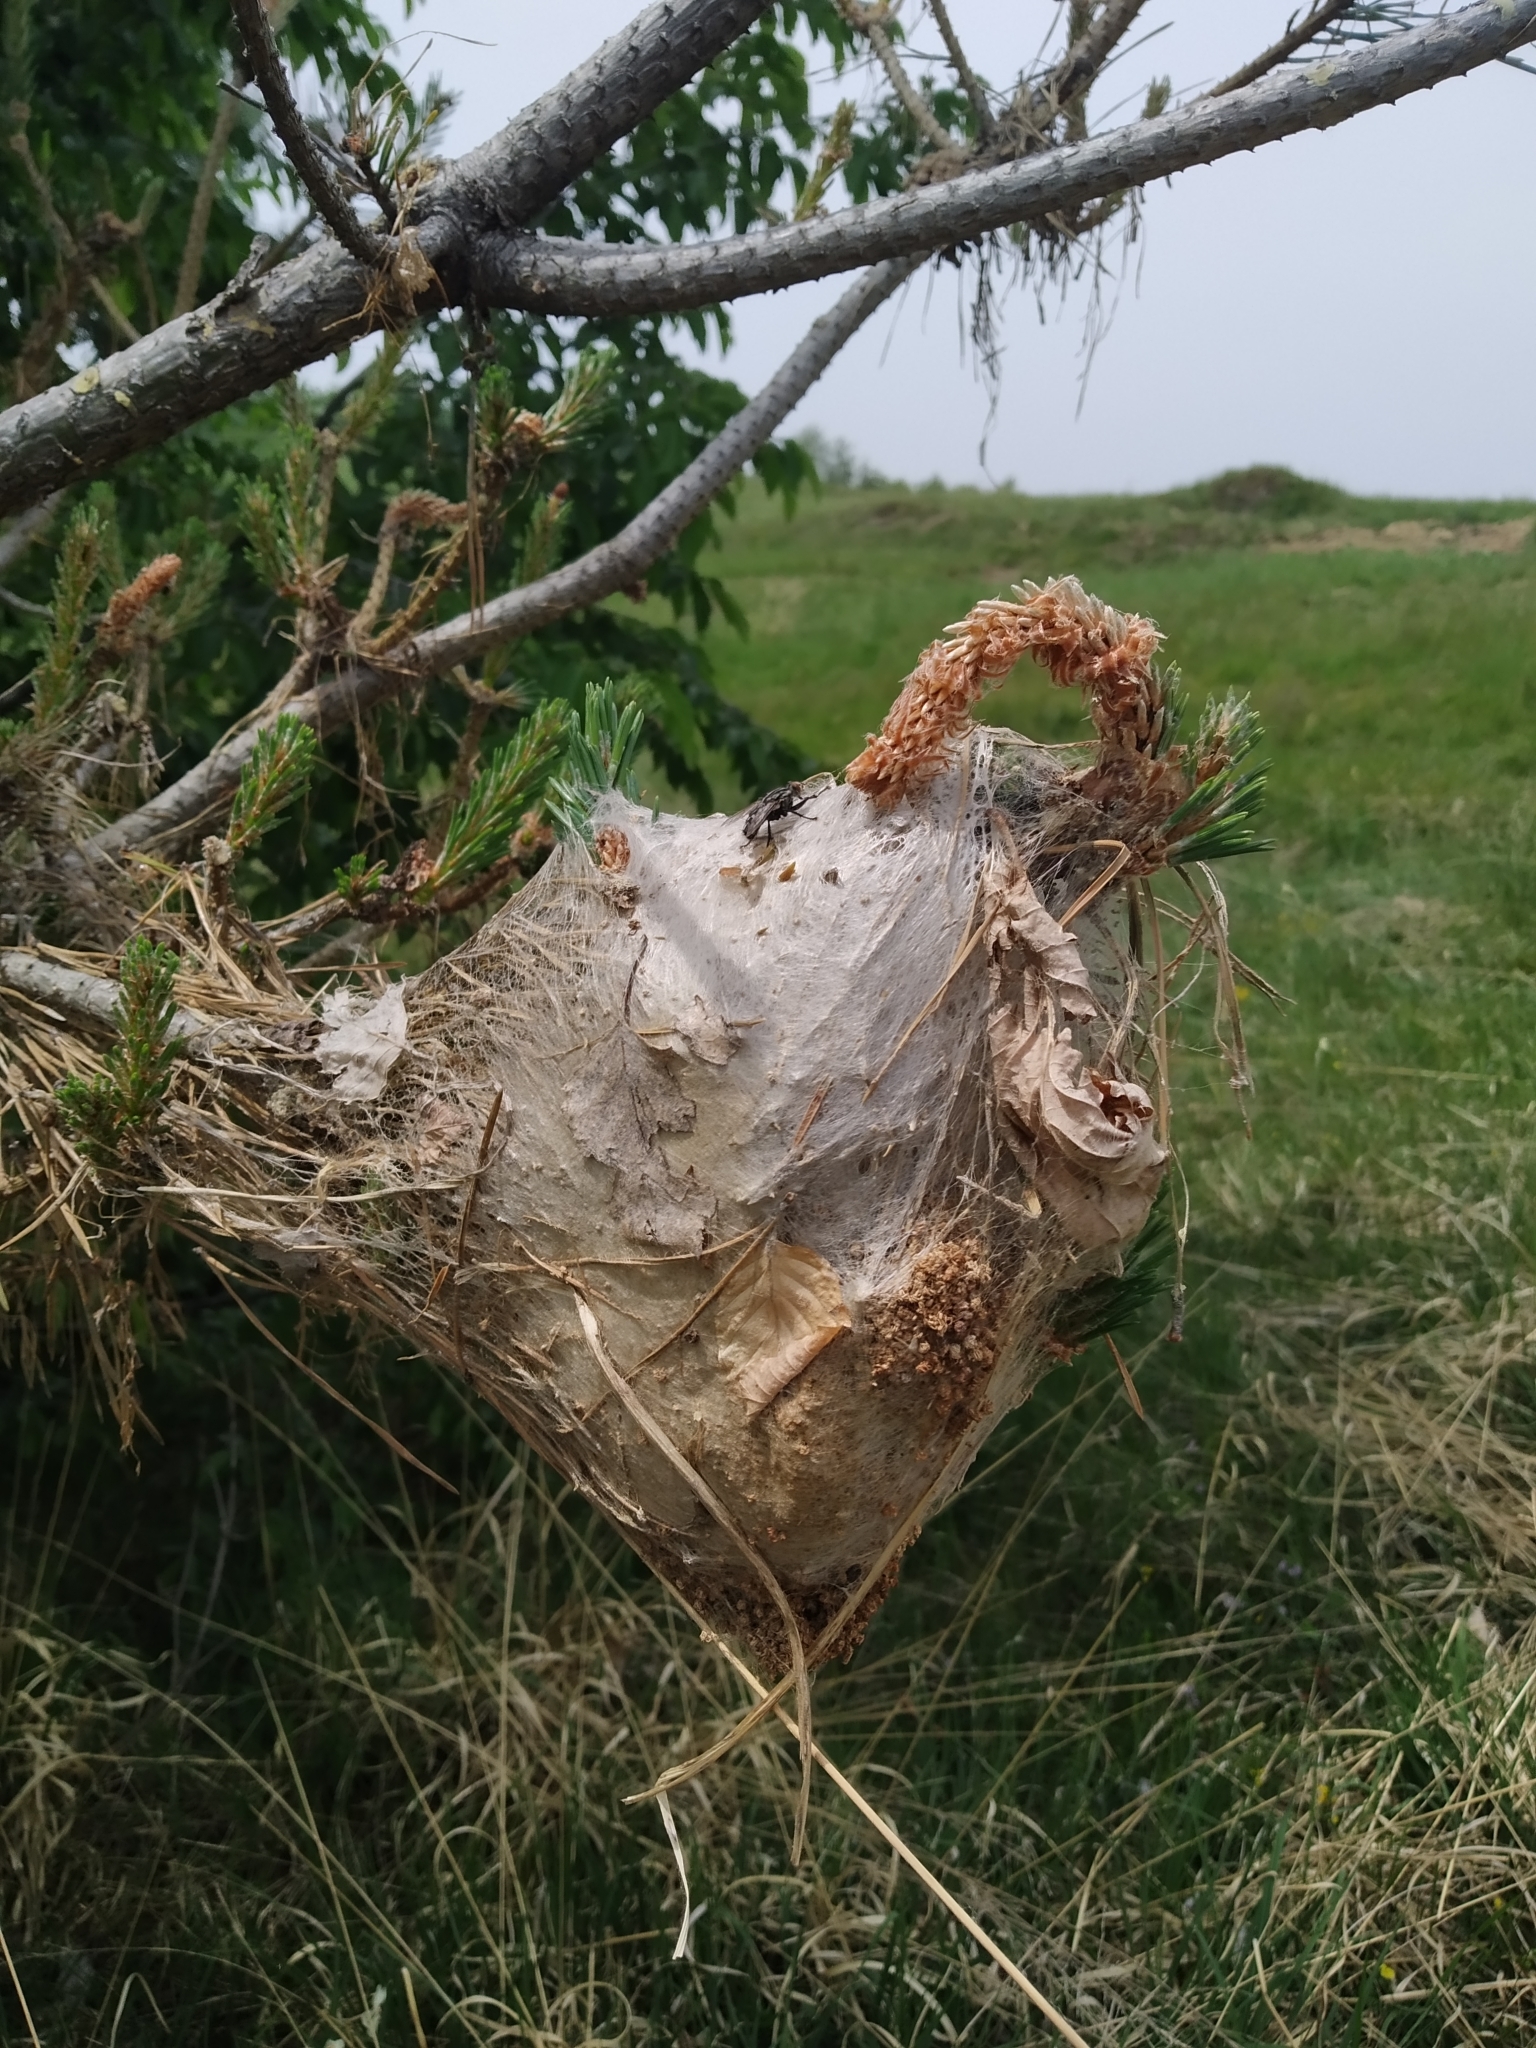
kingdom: Animalia
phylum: Arthropoda
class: Insecta
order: Lepidoptera
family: Notodontidae
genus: Thaumetopoea
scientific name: Thaumetopoea pityocampa
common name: Pine processionary
